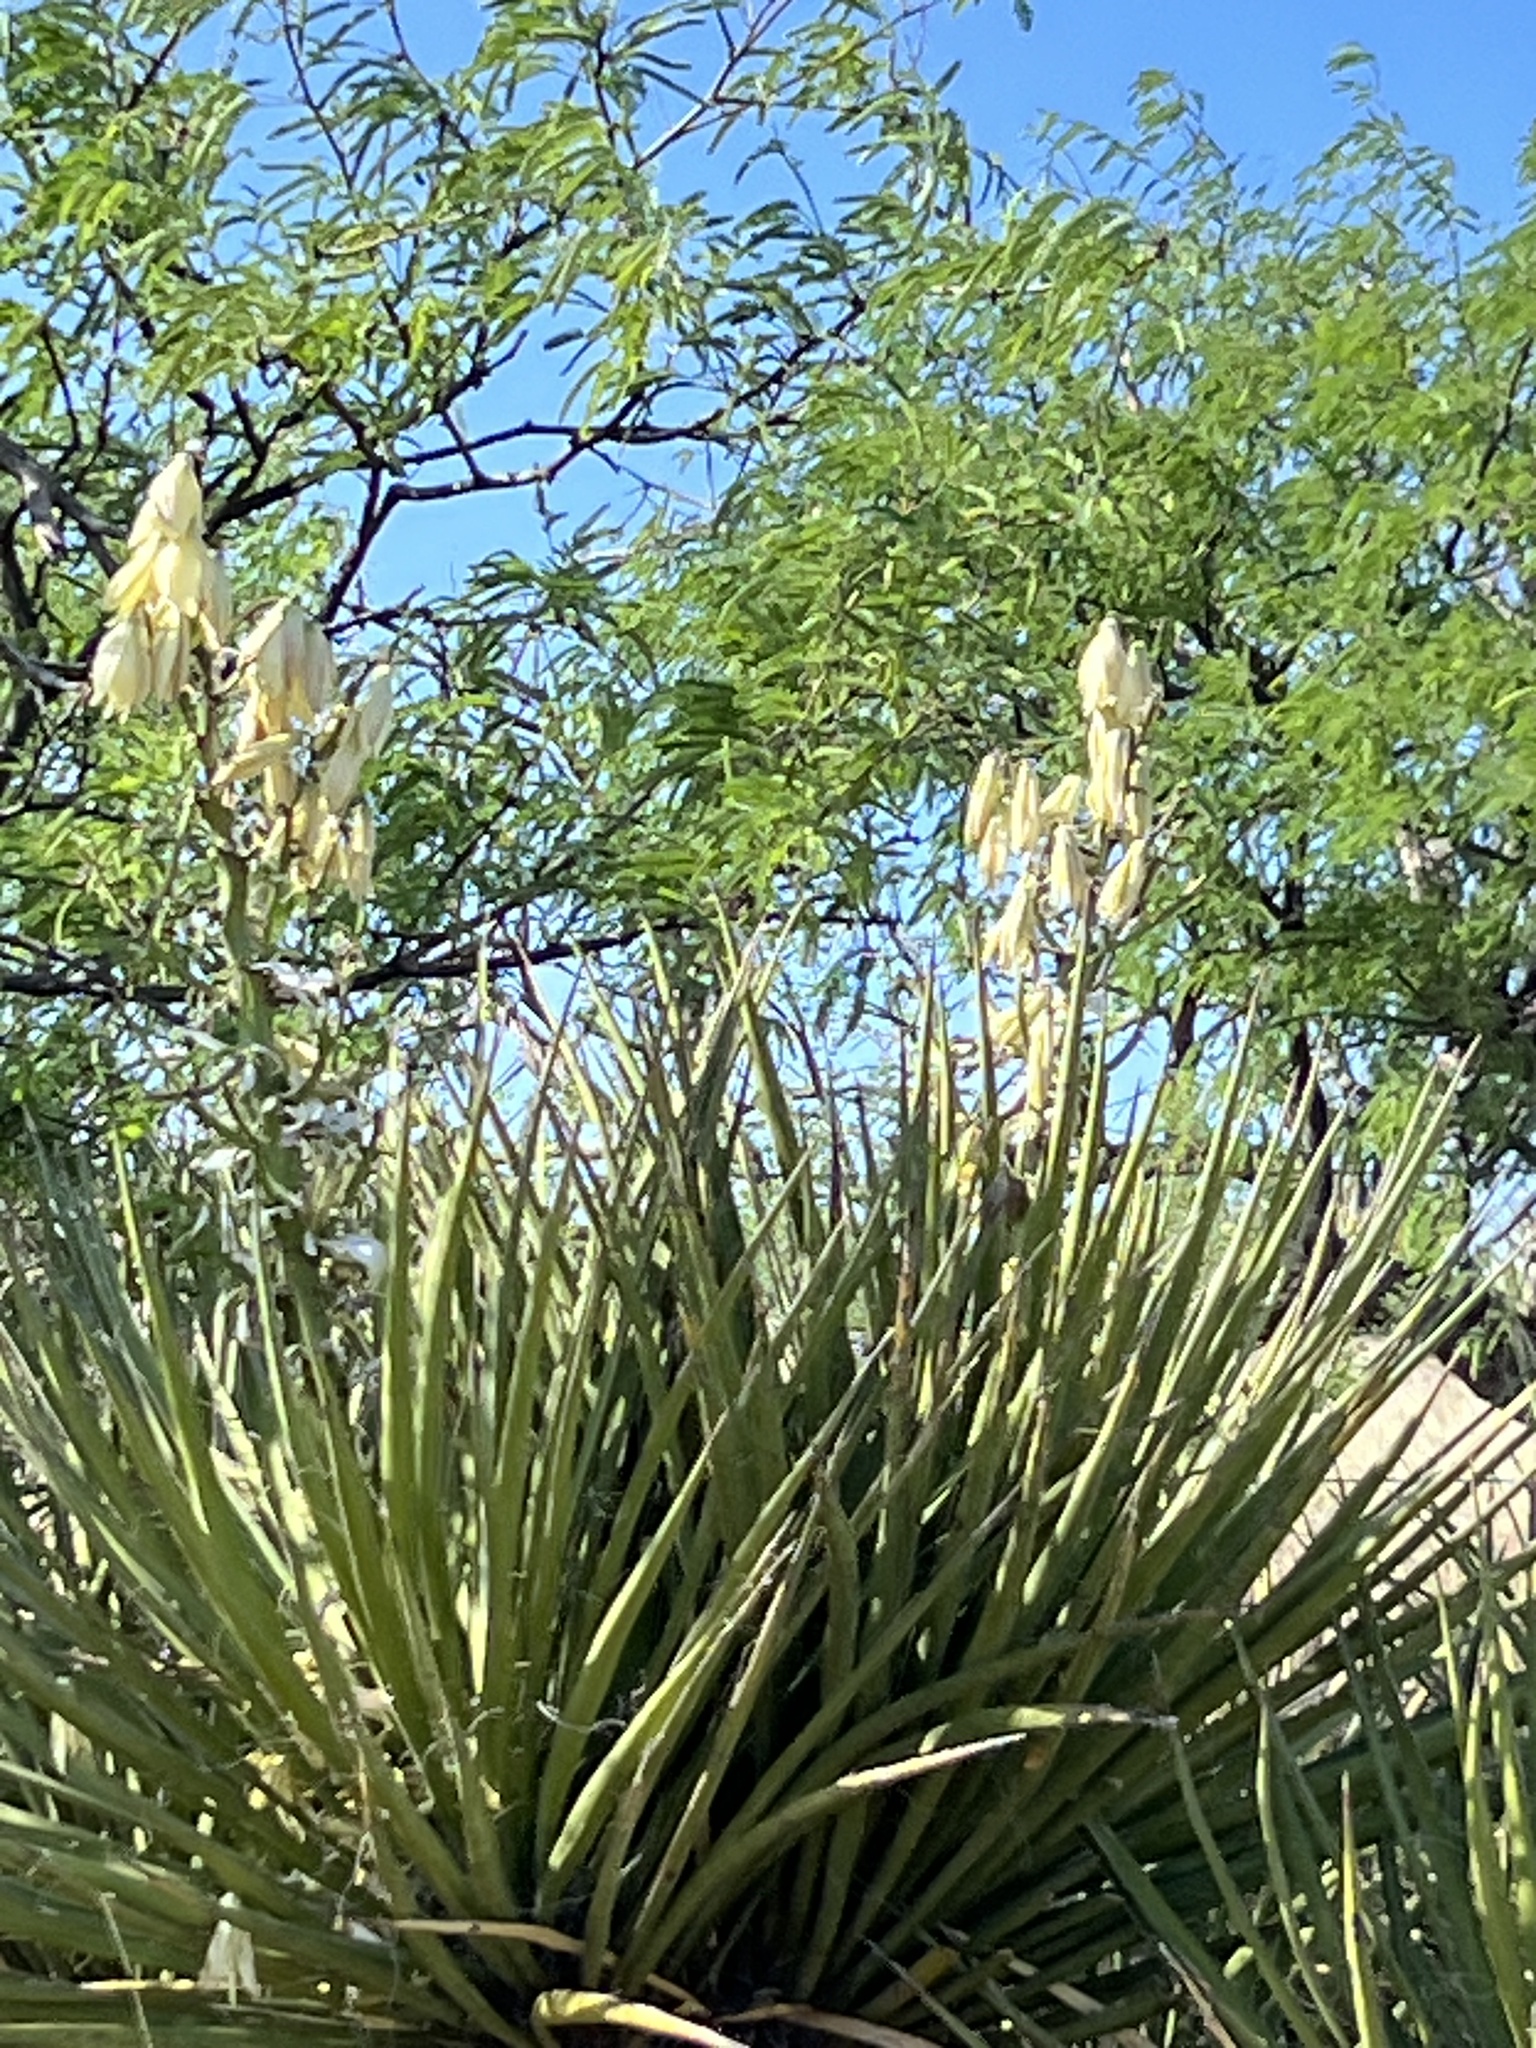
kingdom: Plantae
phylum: Tracheophyta
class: Liliopsida
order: Asparagales
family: Asparagaceae
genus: Yucca
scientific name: Yucca baccata
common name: Banana yucca
